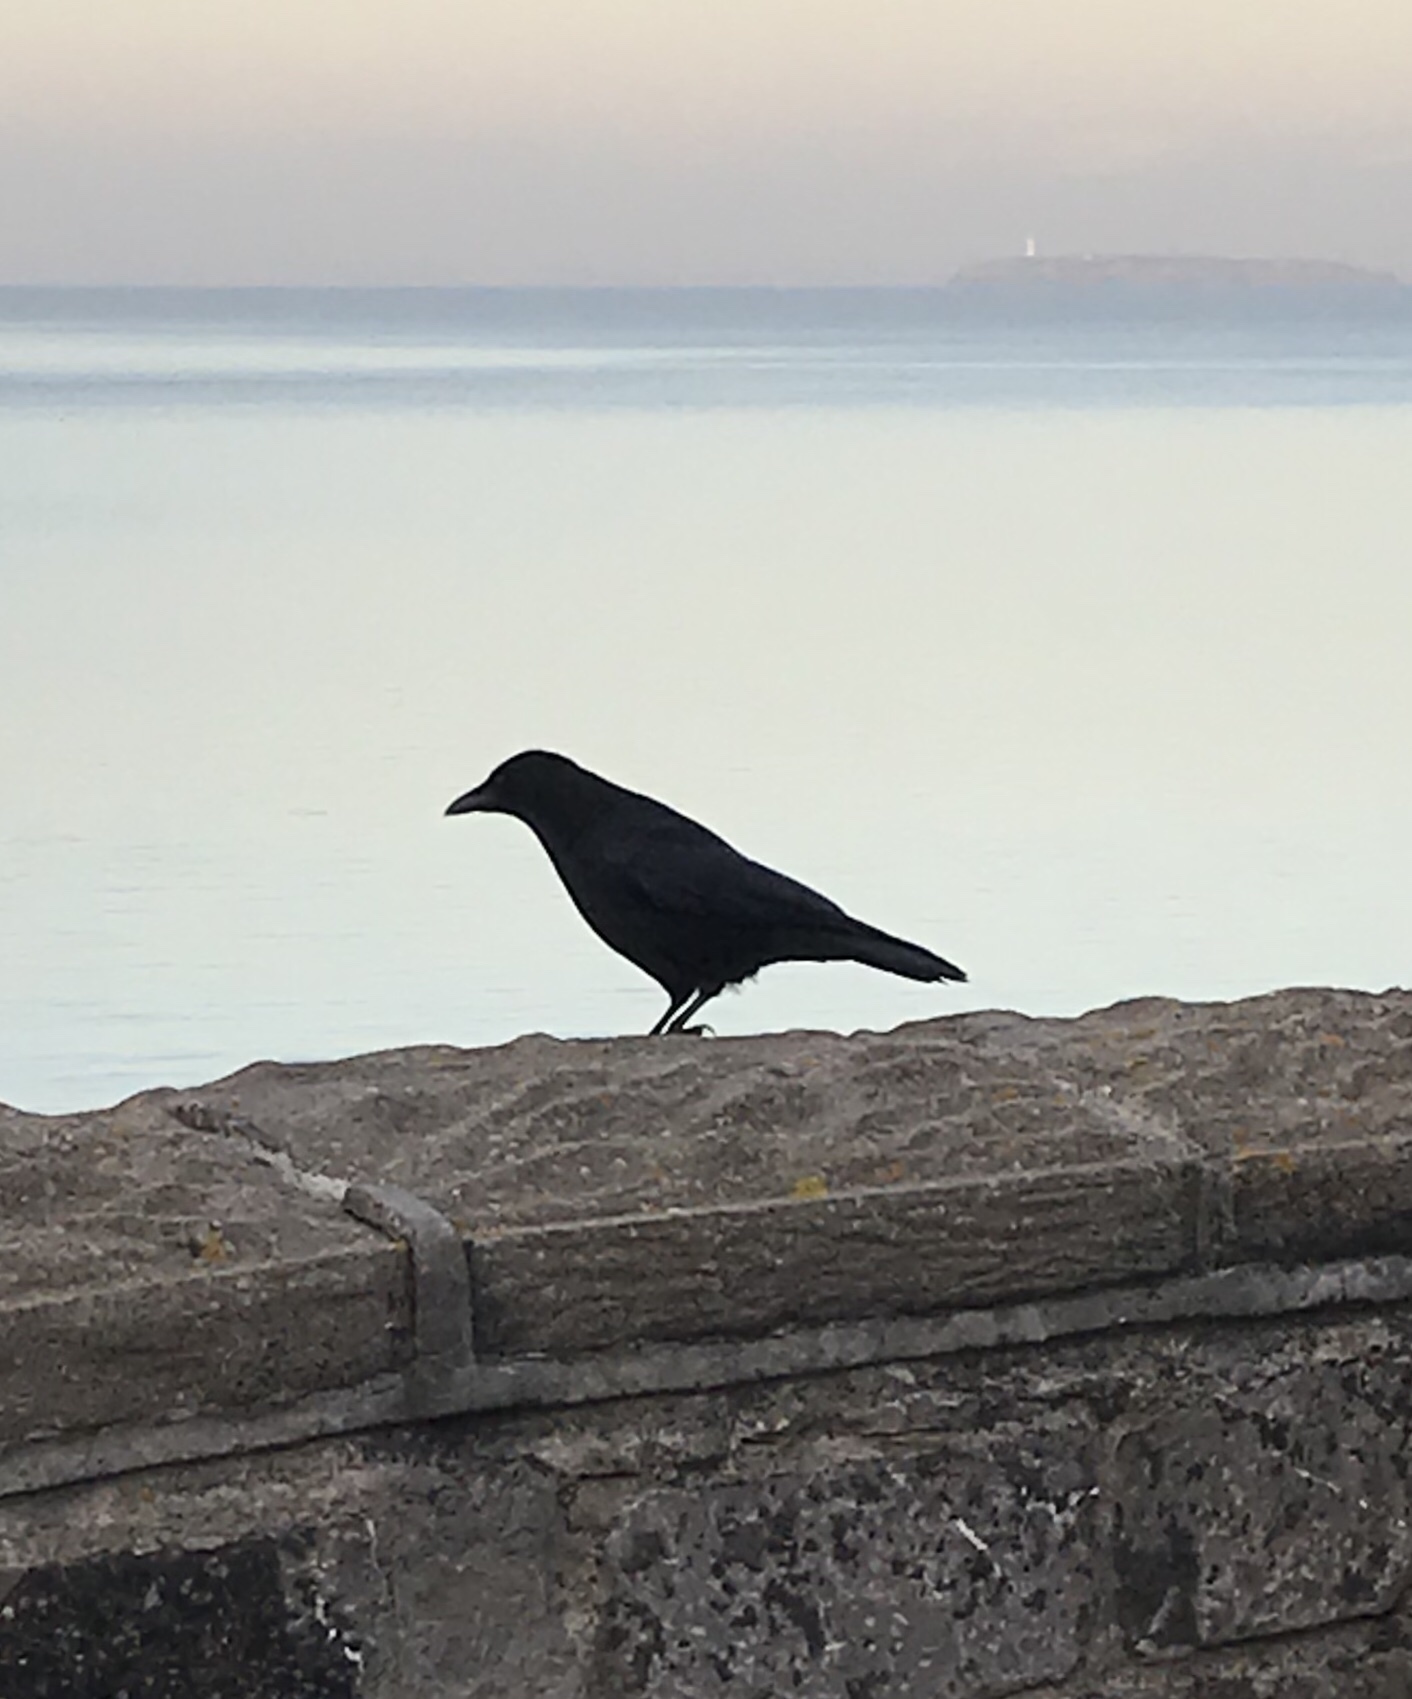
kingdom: Animalia
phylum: Chordata
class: Aves
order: Passeriformes
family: Corvidae
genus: Corvus
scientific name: Corvus corone
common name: Carrion crow
